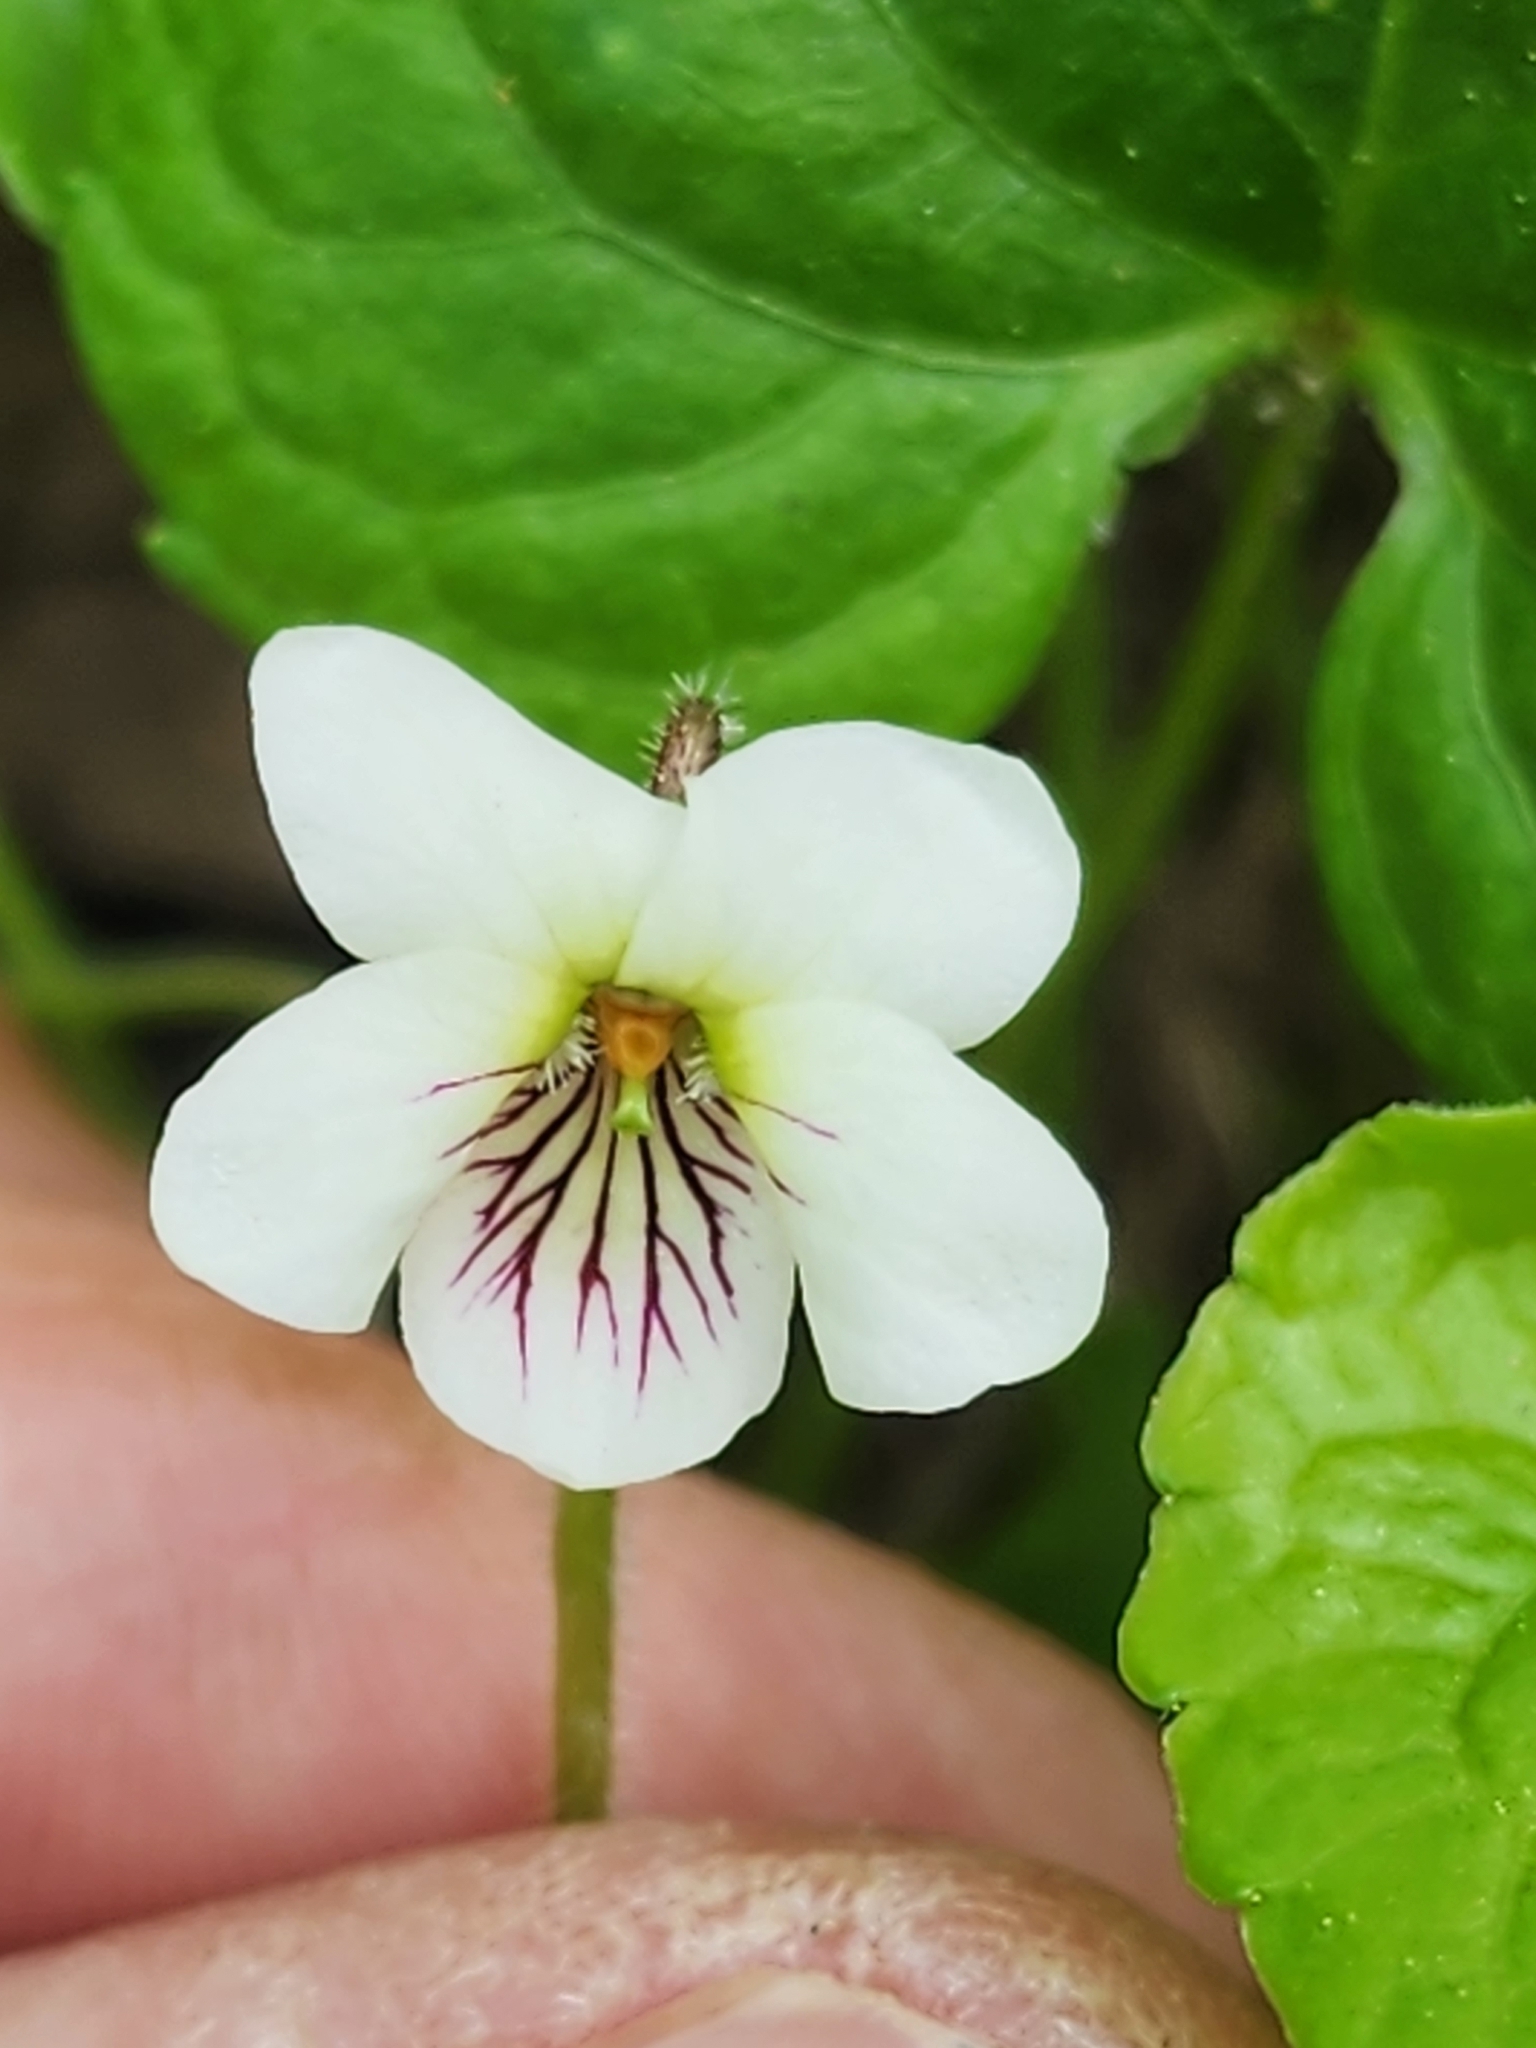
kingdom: Plantae
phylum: Tracheophyta
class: Magnoliopsida
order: Malpighiales
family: Violaceae
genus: Viola
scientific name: Viola incognita
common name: Largeleaf white violet
